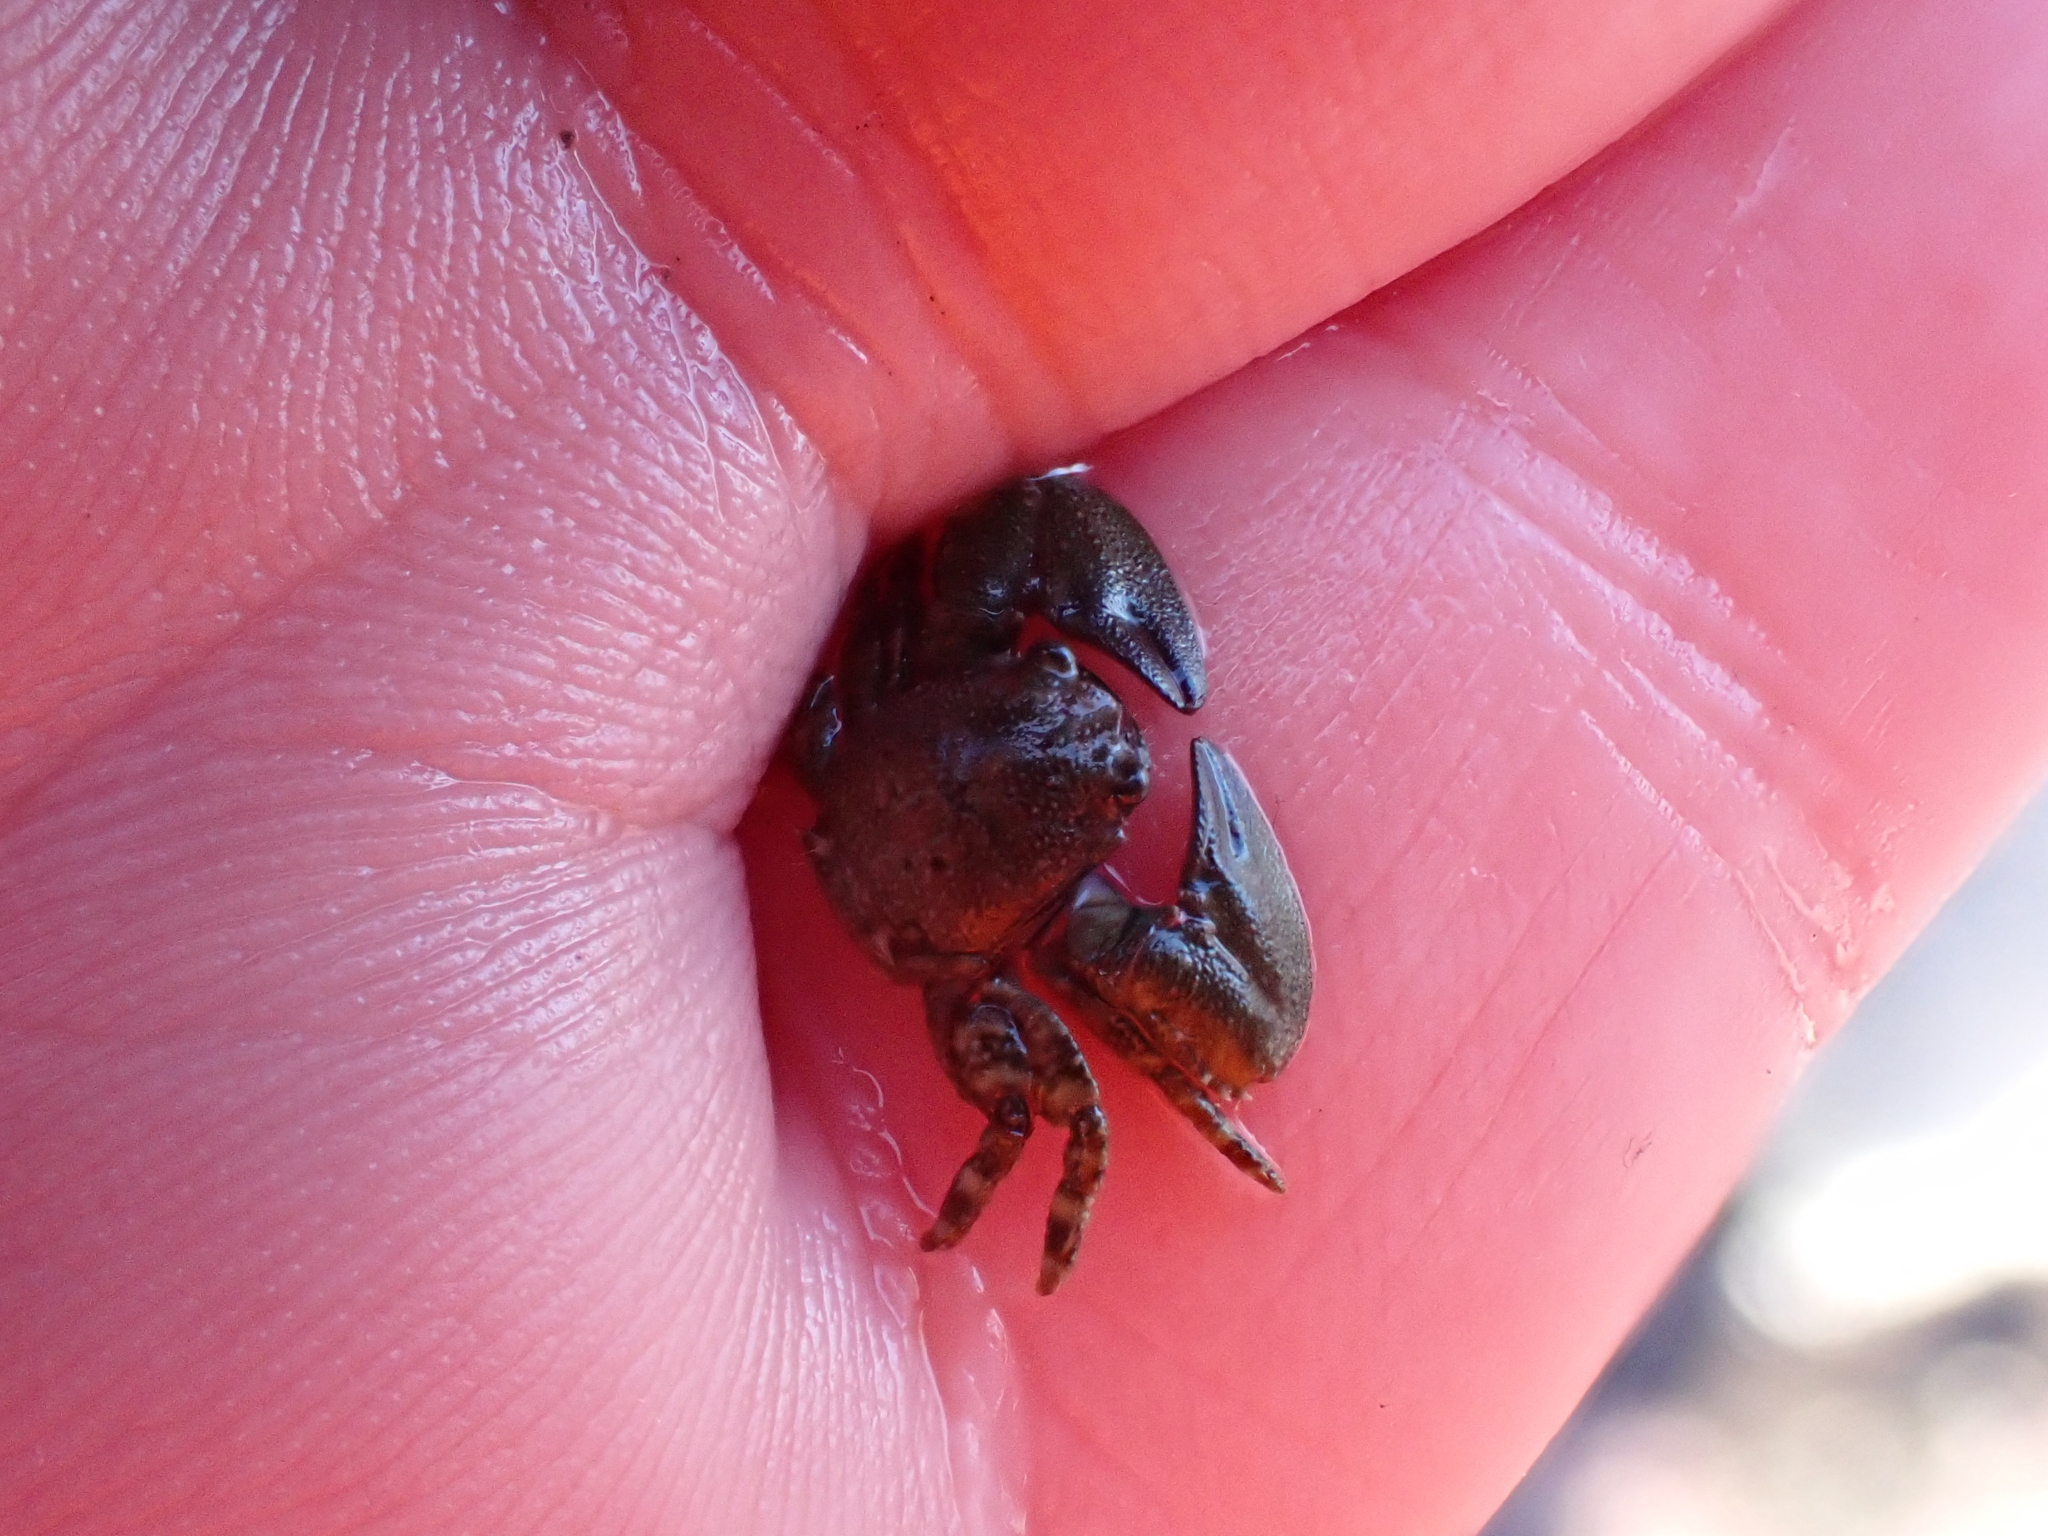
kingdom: Animalia
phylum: Arthropoda
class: Malacostraca
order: Decapoda
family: Porcellanidae
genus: Petrolisthes
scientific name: Petrolisthes elongatus
